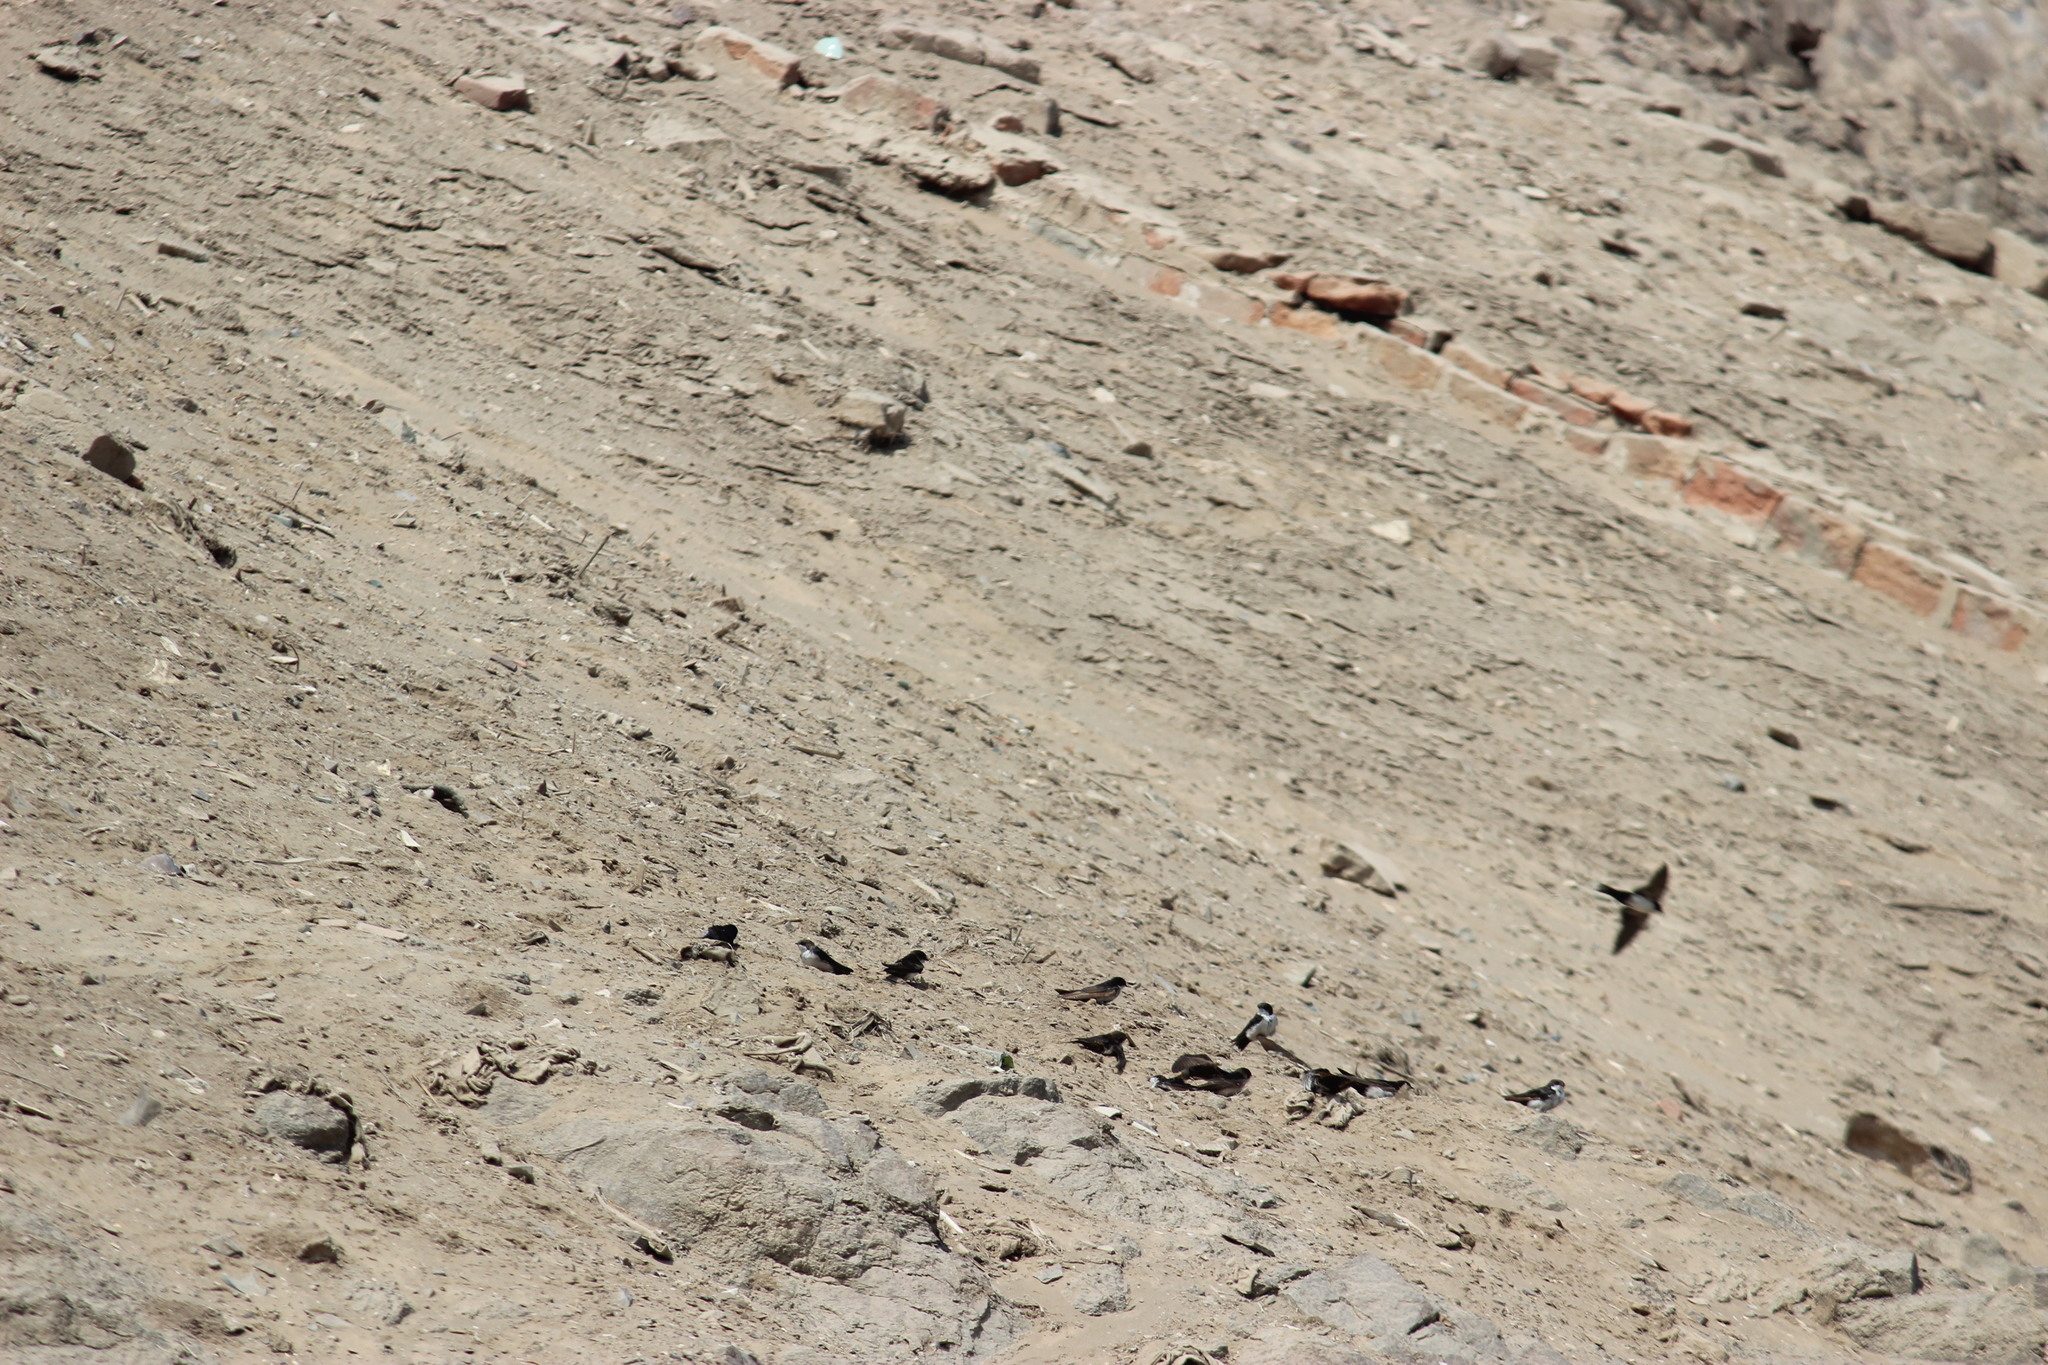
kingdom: Animalia
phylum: Chordata
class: Aves
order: Passeriformes
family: Hirundinidae
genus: Notiochelidon
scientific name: Notiochelidon cyanoleuca
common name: Blue-and-white swallow
